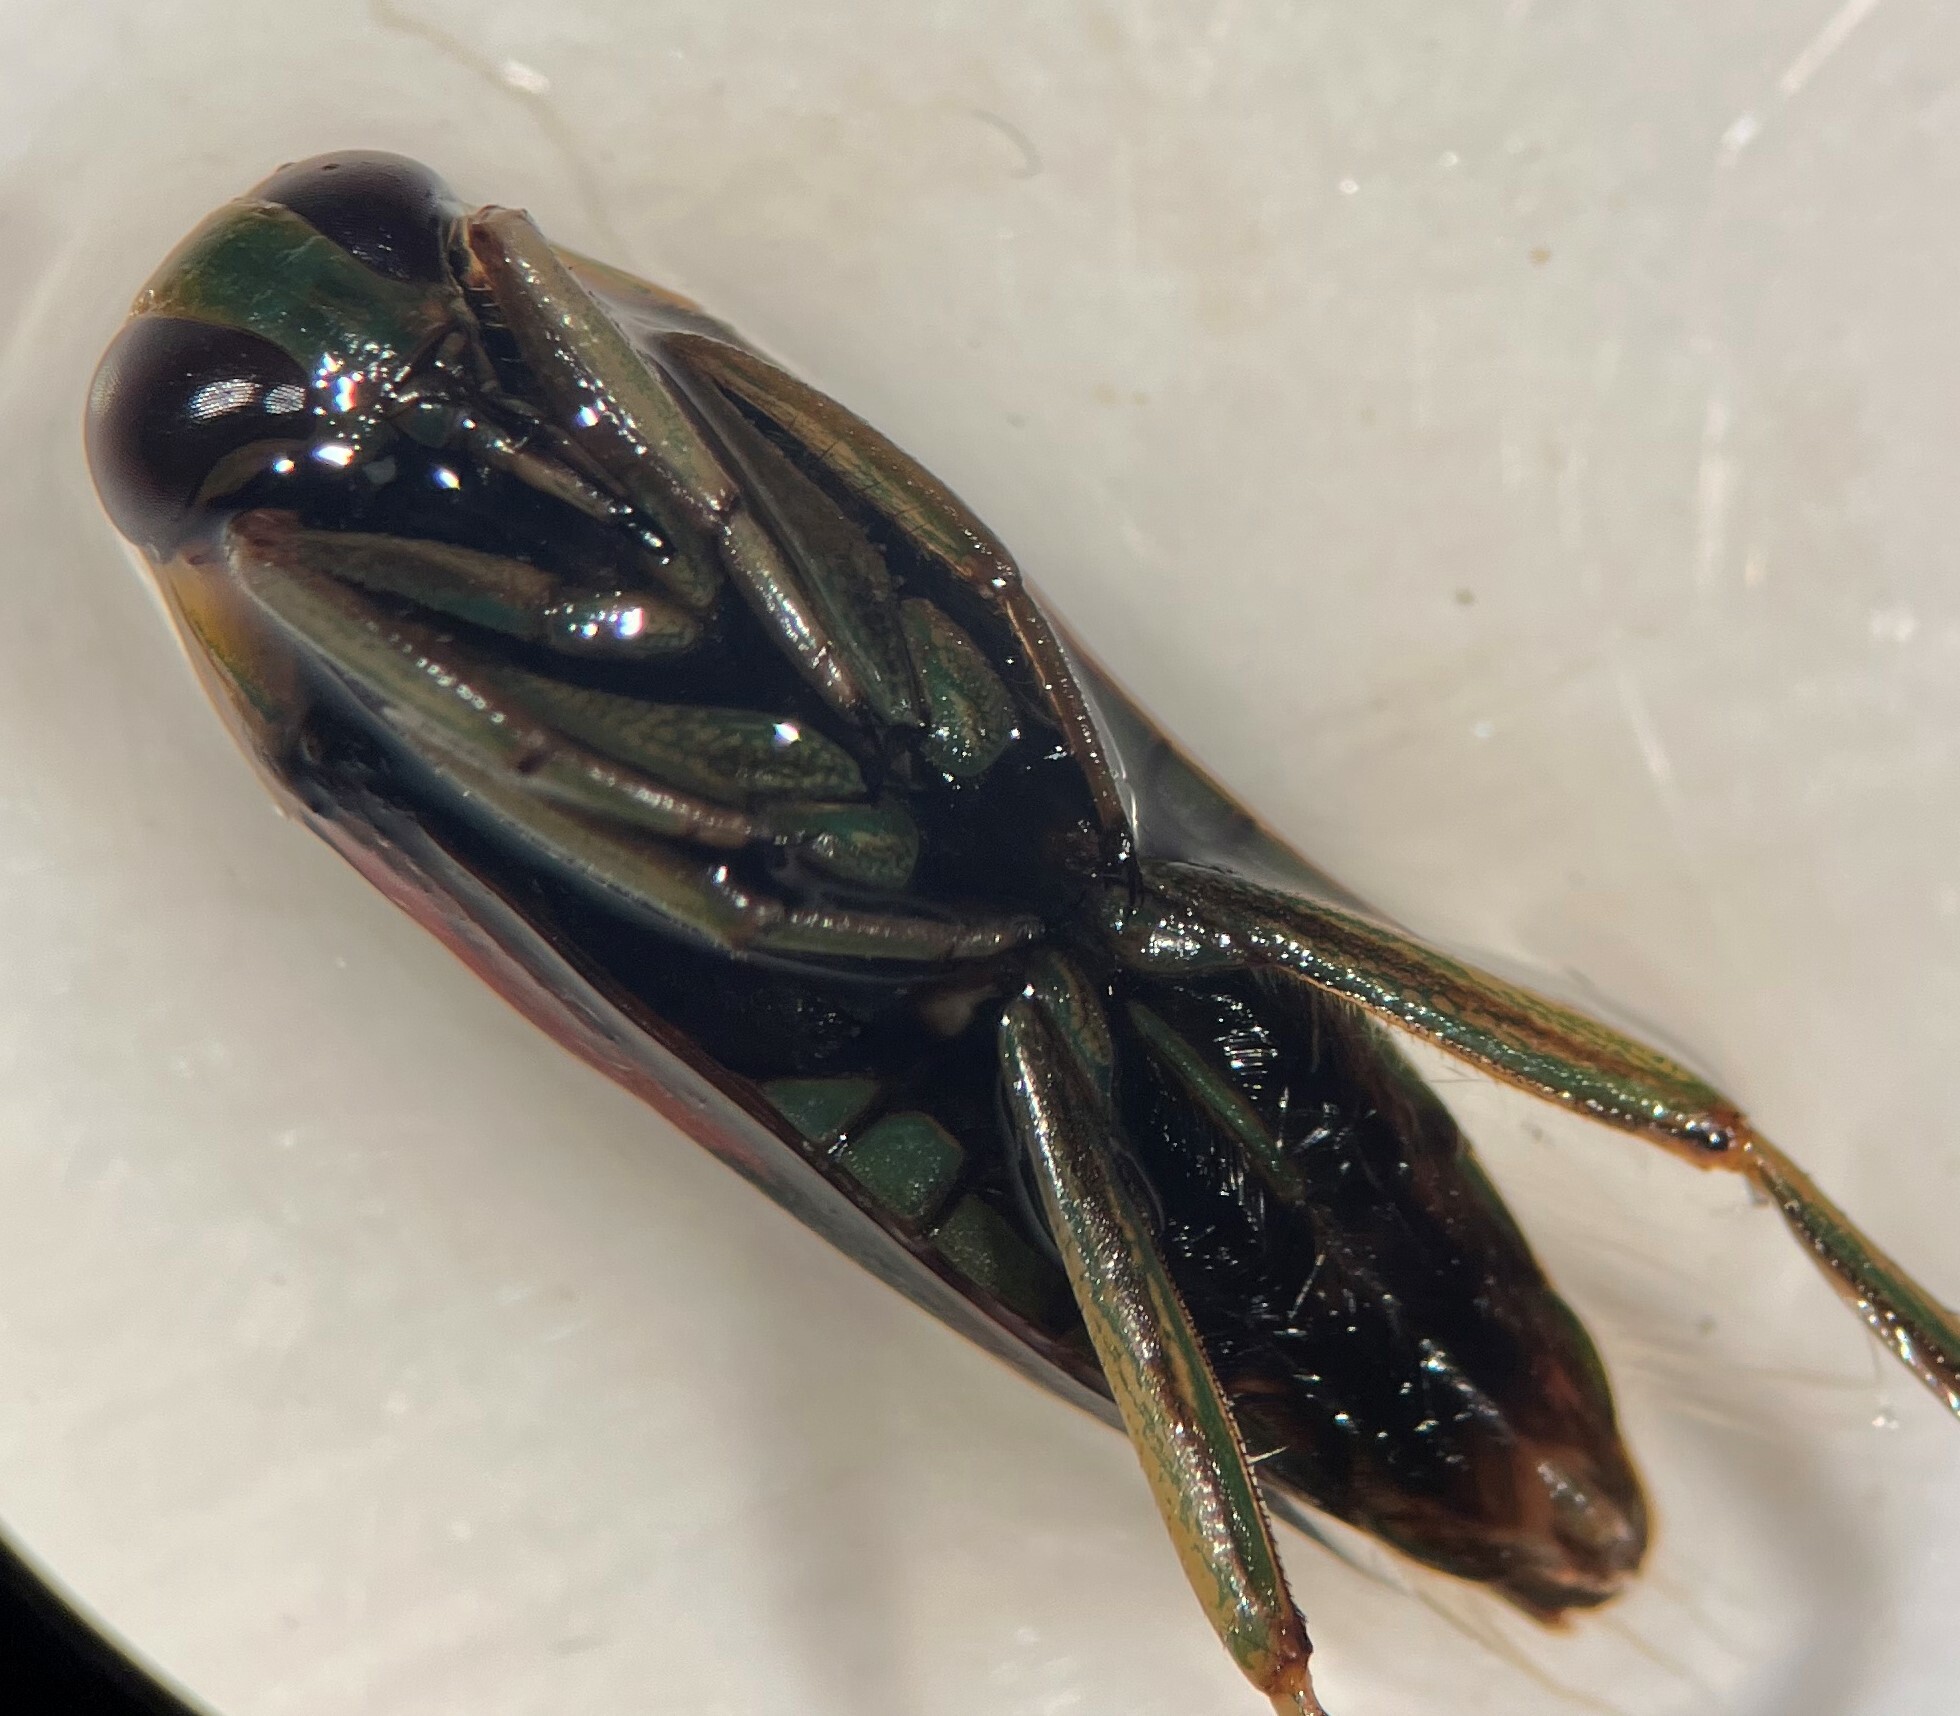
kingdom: Animalia
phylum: Arthropoda
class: Insecta
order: Hemiptera
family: Notonectidae
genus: Notonecta
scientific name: Notonecta kirbyi
